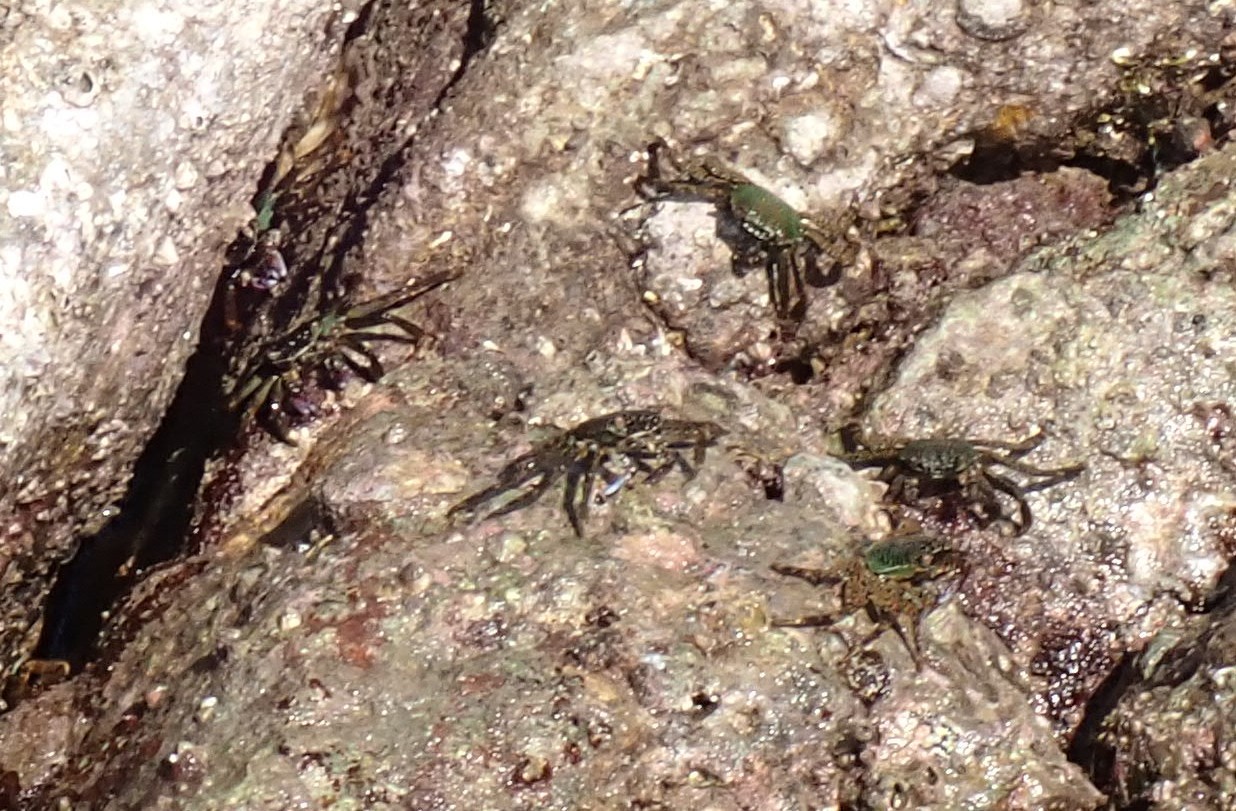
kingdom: Animalia
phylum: Arthropoda
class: Malacostraca
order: Decapoda
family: Grapsidae
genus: Grapsus
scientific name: Grapsus albolineatus
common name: Mottled lightfoot crab
